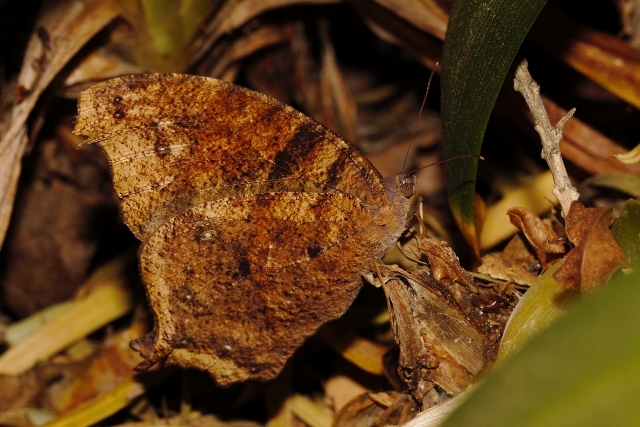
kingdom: Animalia
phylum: Arthropoda
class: Insecta
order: Lepidoptera
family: Nymphalidae
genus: Melanitis
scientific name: Melanitis leda
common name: Twilight brown
